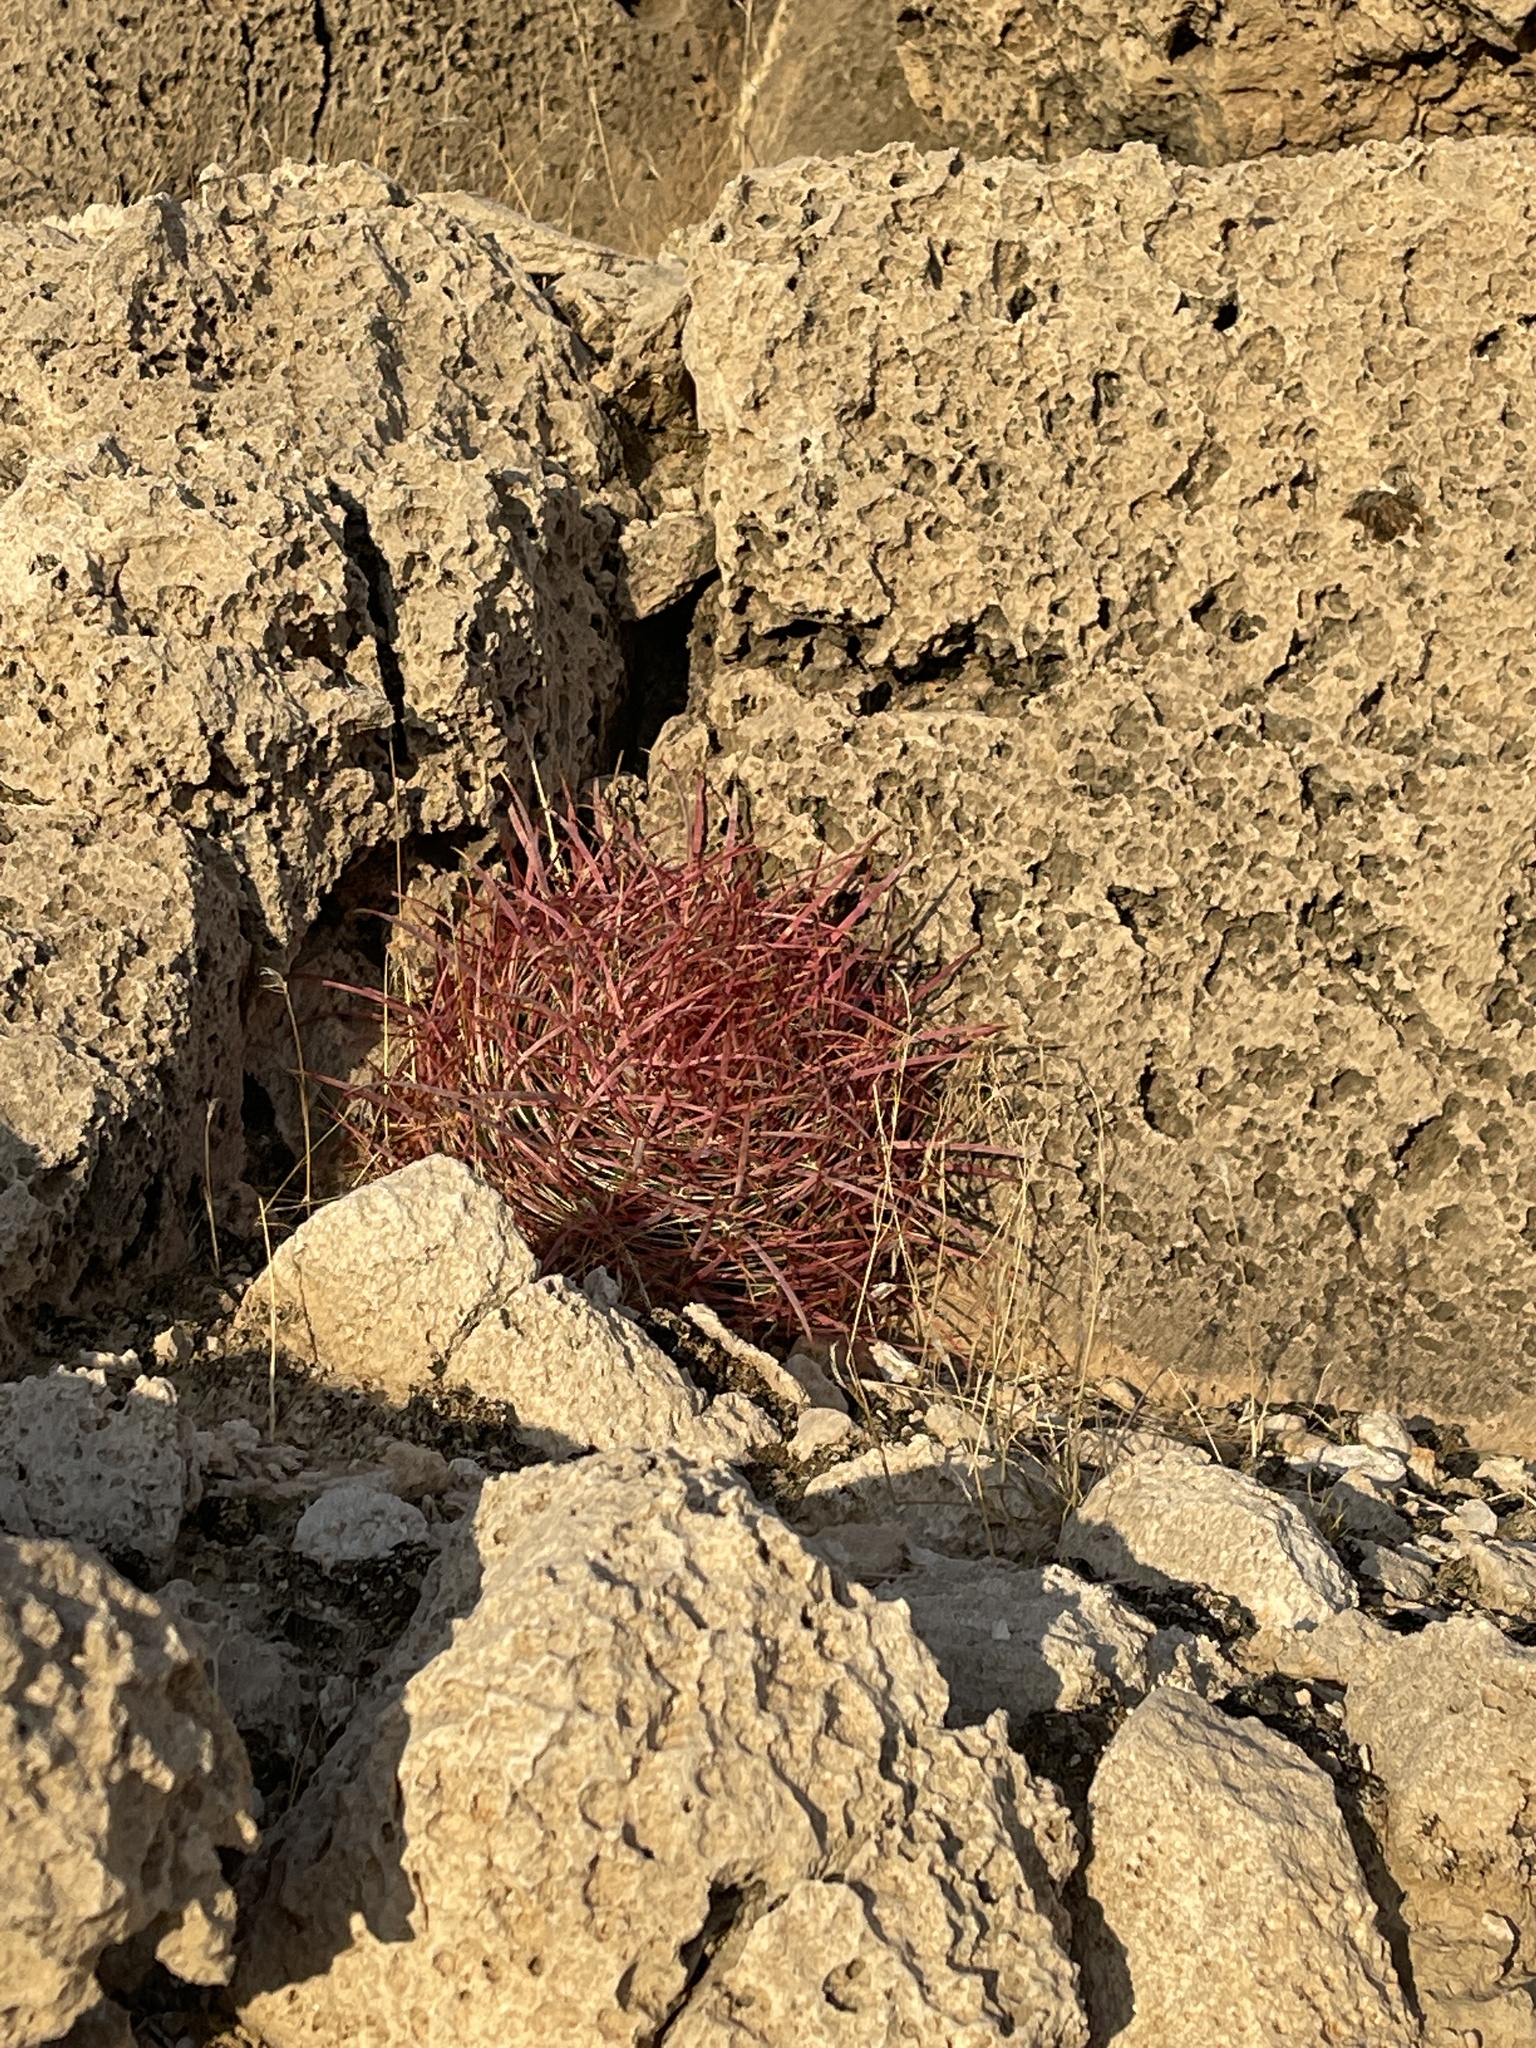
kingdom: Plantae
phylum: Tracheophyta
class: Magnoliopsida
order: Caryophyllales
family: Cactaceae
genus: Ferocactus
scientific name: Ferocactus cylindraceus
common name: California barrel cactus
